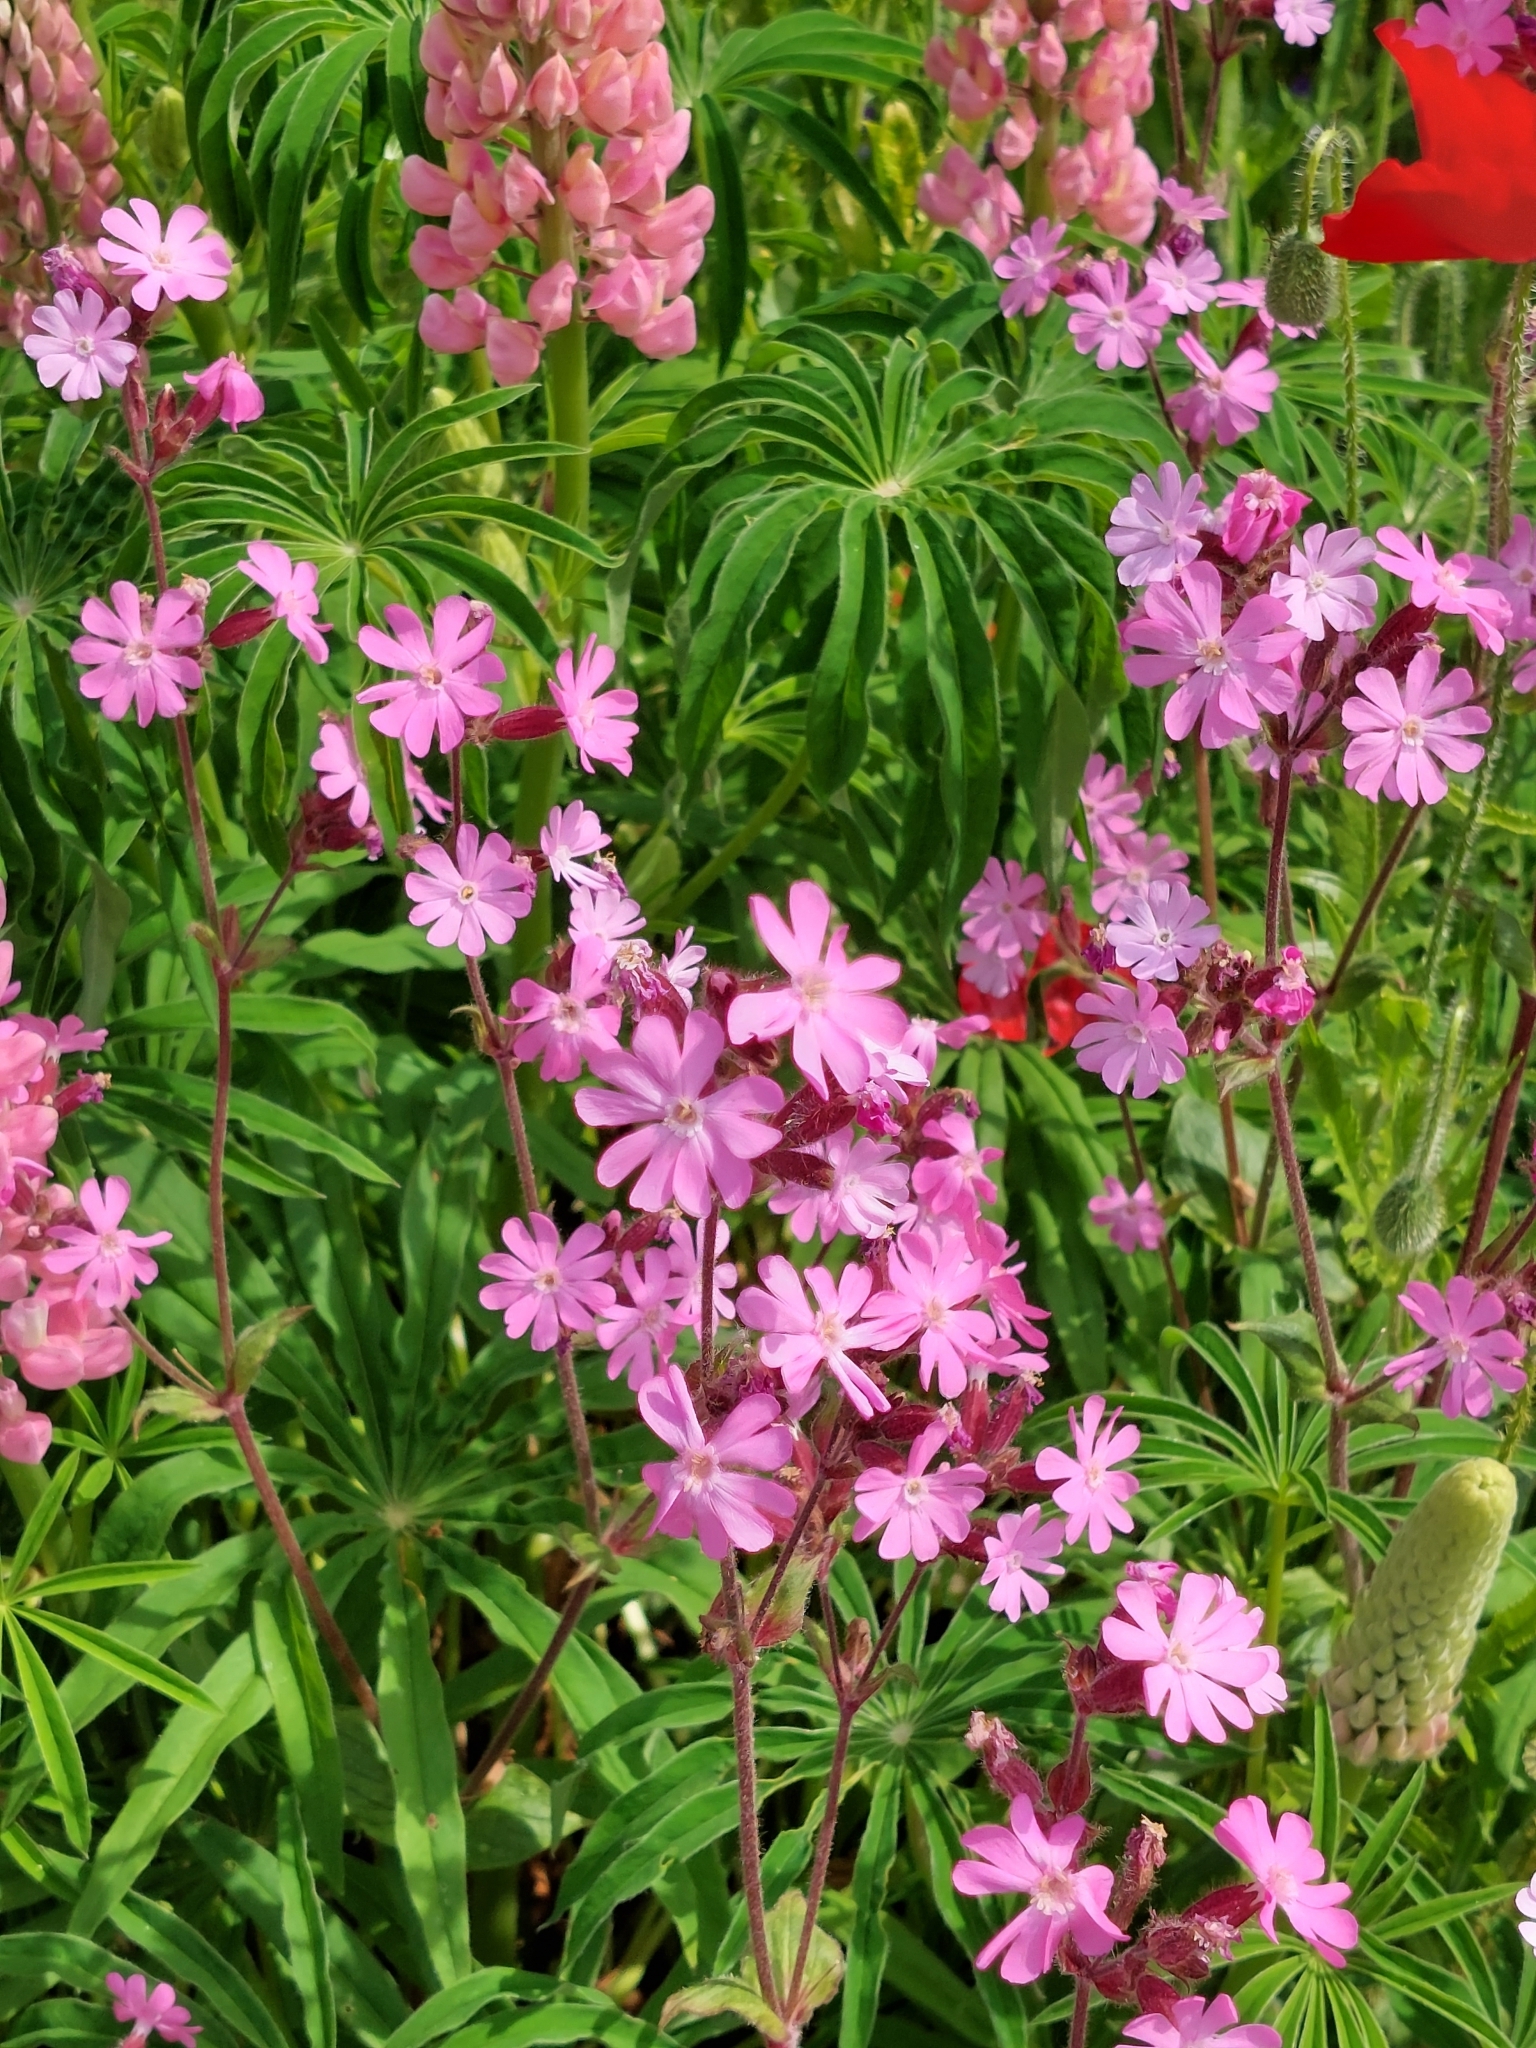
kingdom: Plantae
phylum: Tracheophyta
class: Magnoliopsida
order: Caryophyllales
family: Caryophyllaceae
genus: Silene
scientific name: Silene dioica
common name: Red campion
